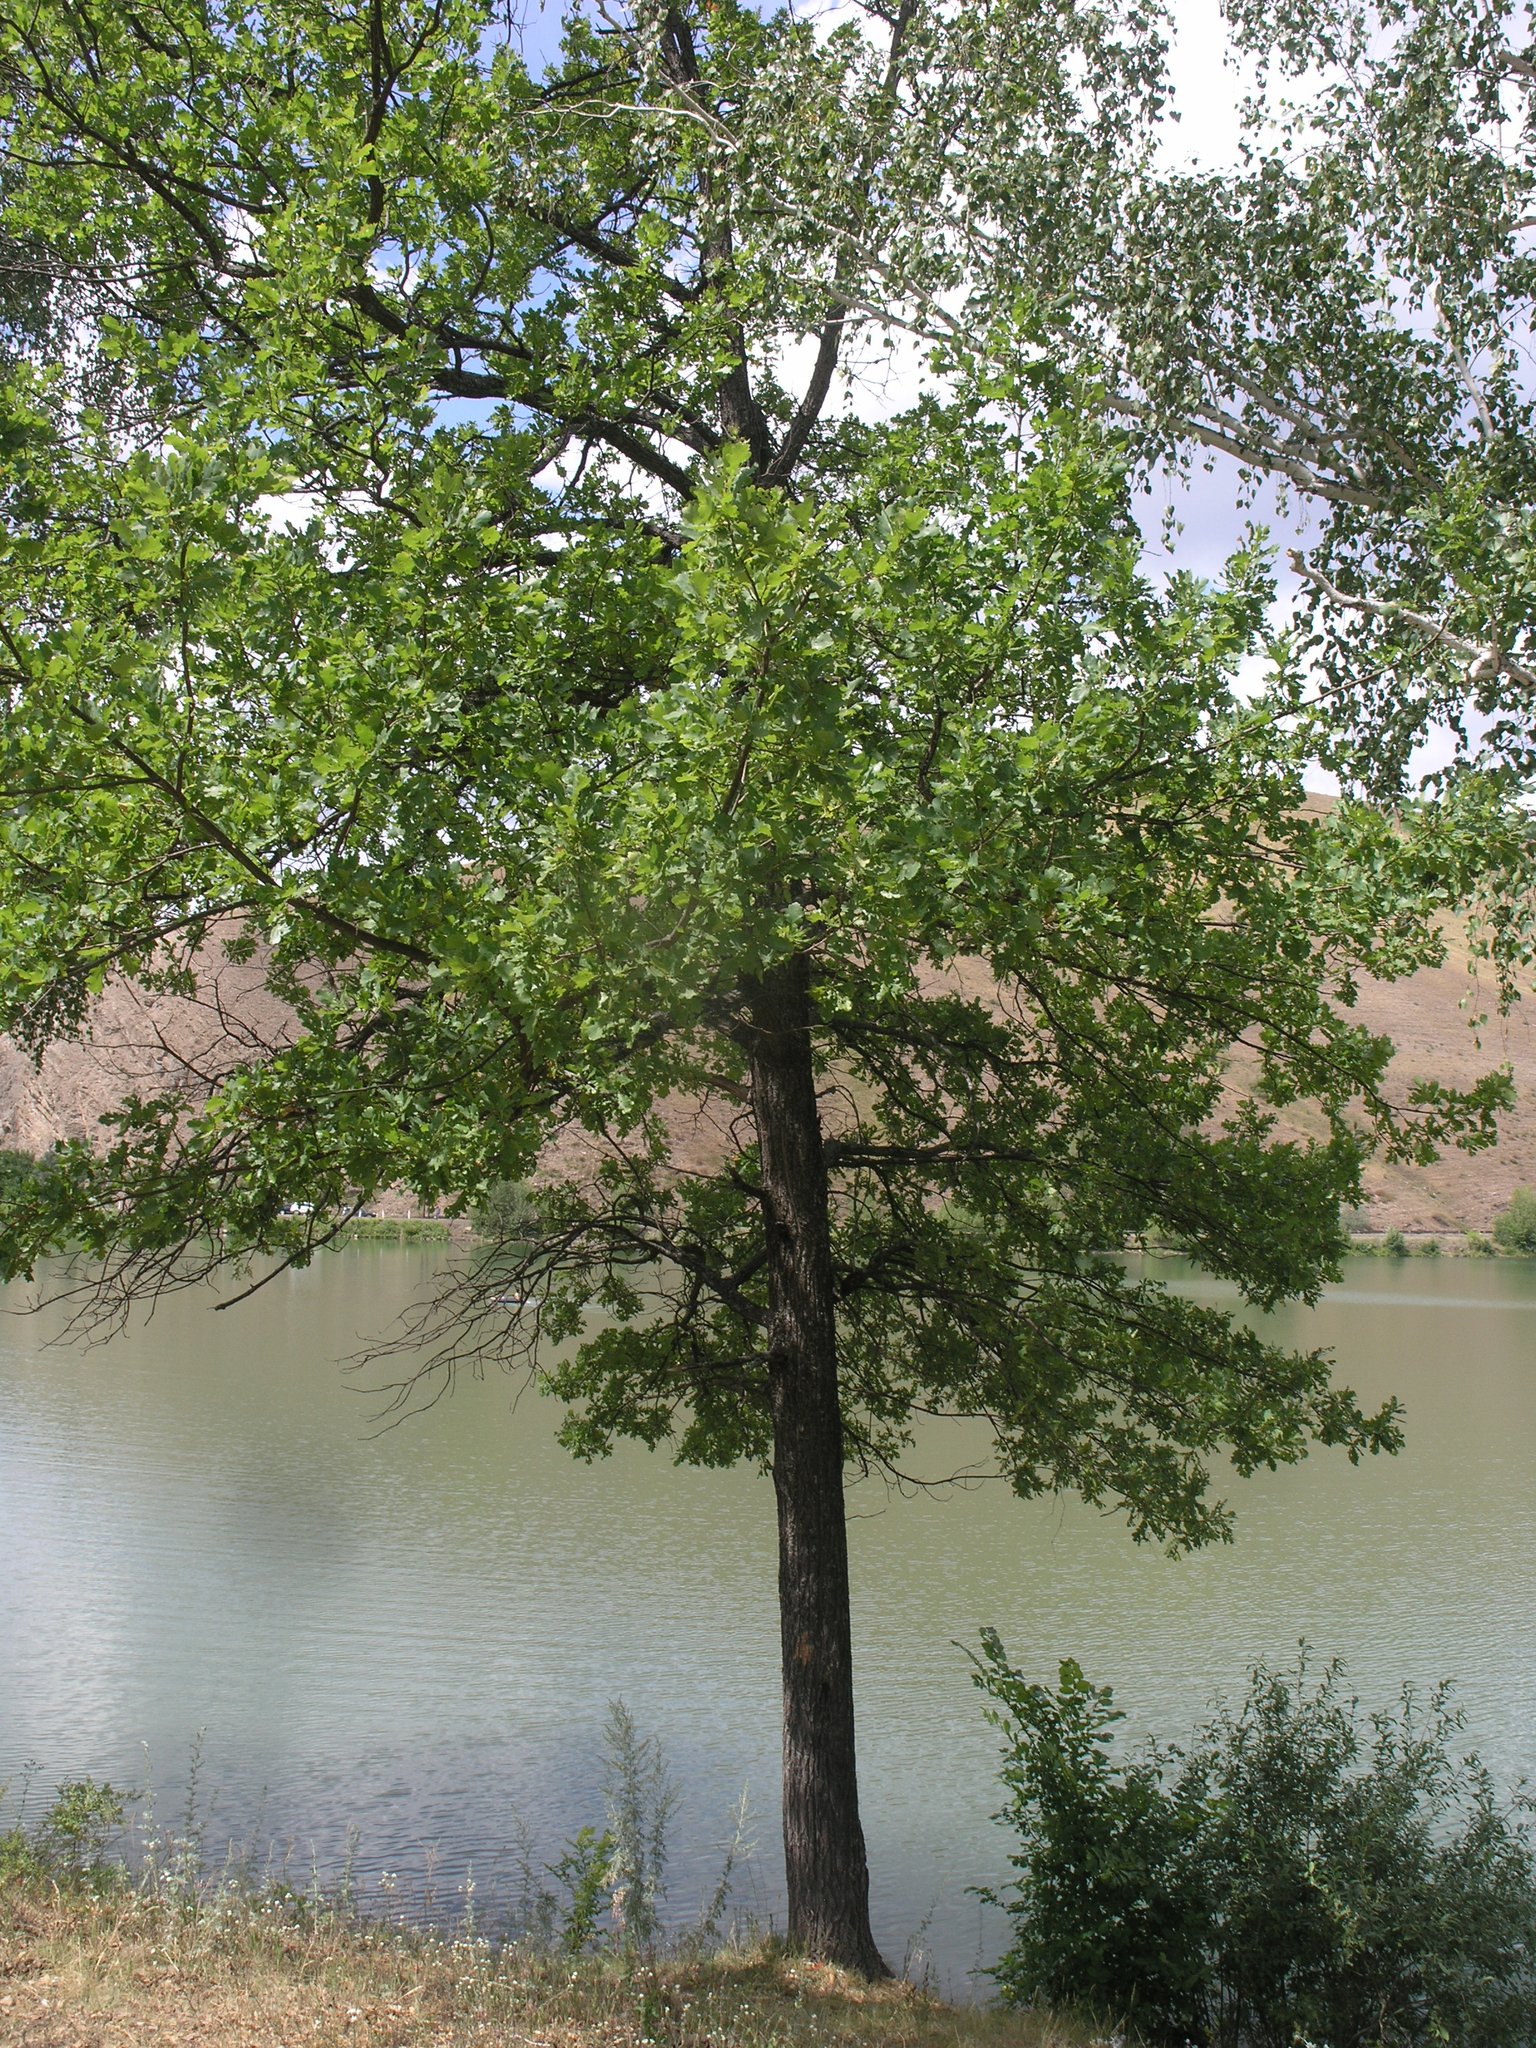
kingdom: Plantae
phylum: Tracheophyta
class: Magnoliopsida
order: Fagales
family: Fagaceae
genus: Quercus
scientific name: Quercus robur
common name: Pedunculate oak
